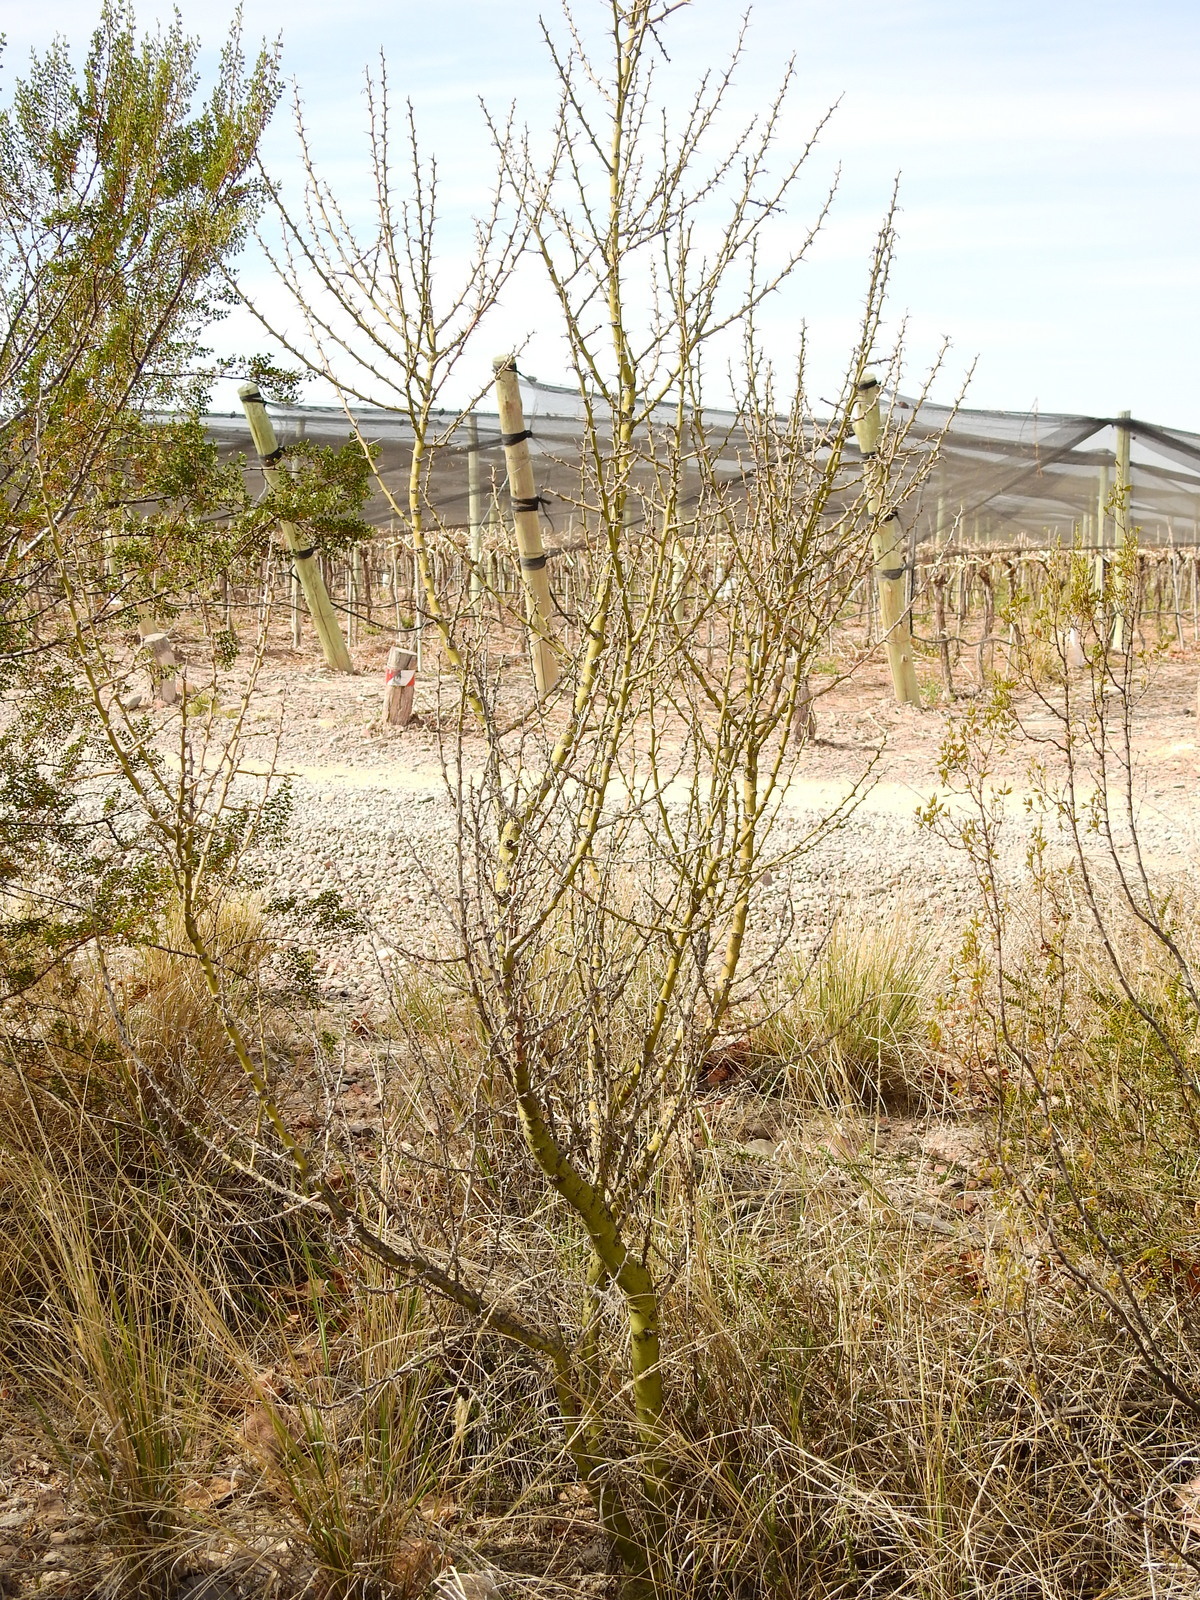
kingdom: Plantae
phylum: Tracheophyta
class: Magnoliopsida
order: Fabales
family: Fabaceae
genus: Parkinsonia
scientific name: Parkinsonia praecox
